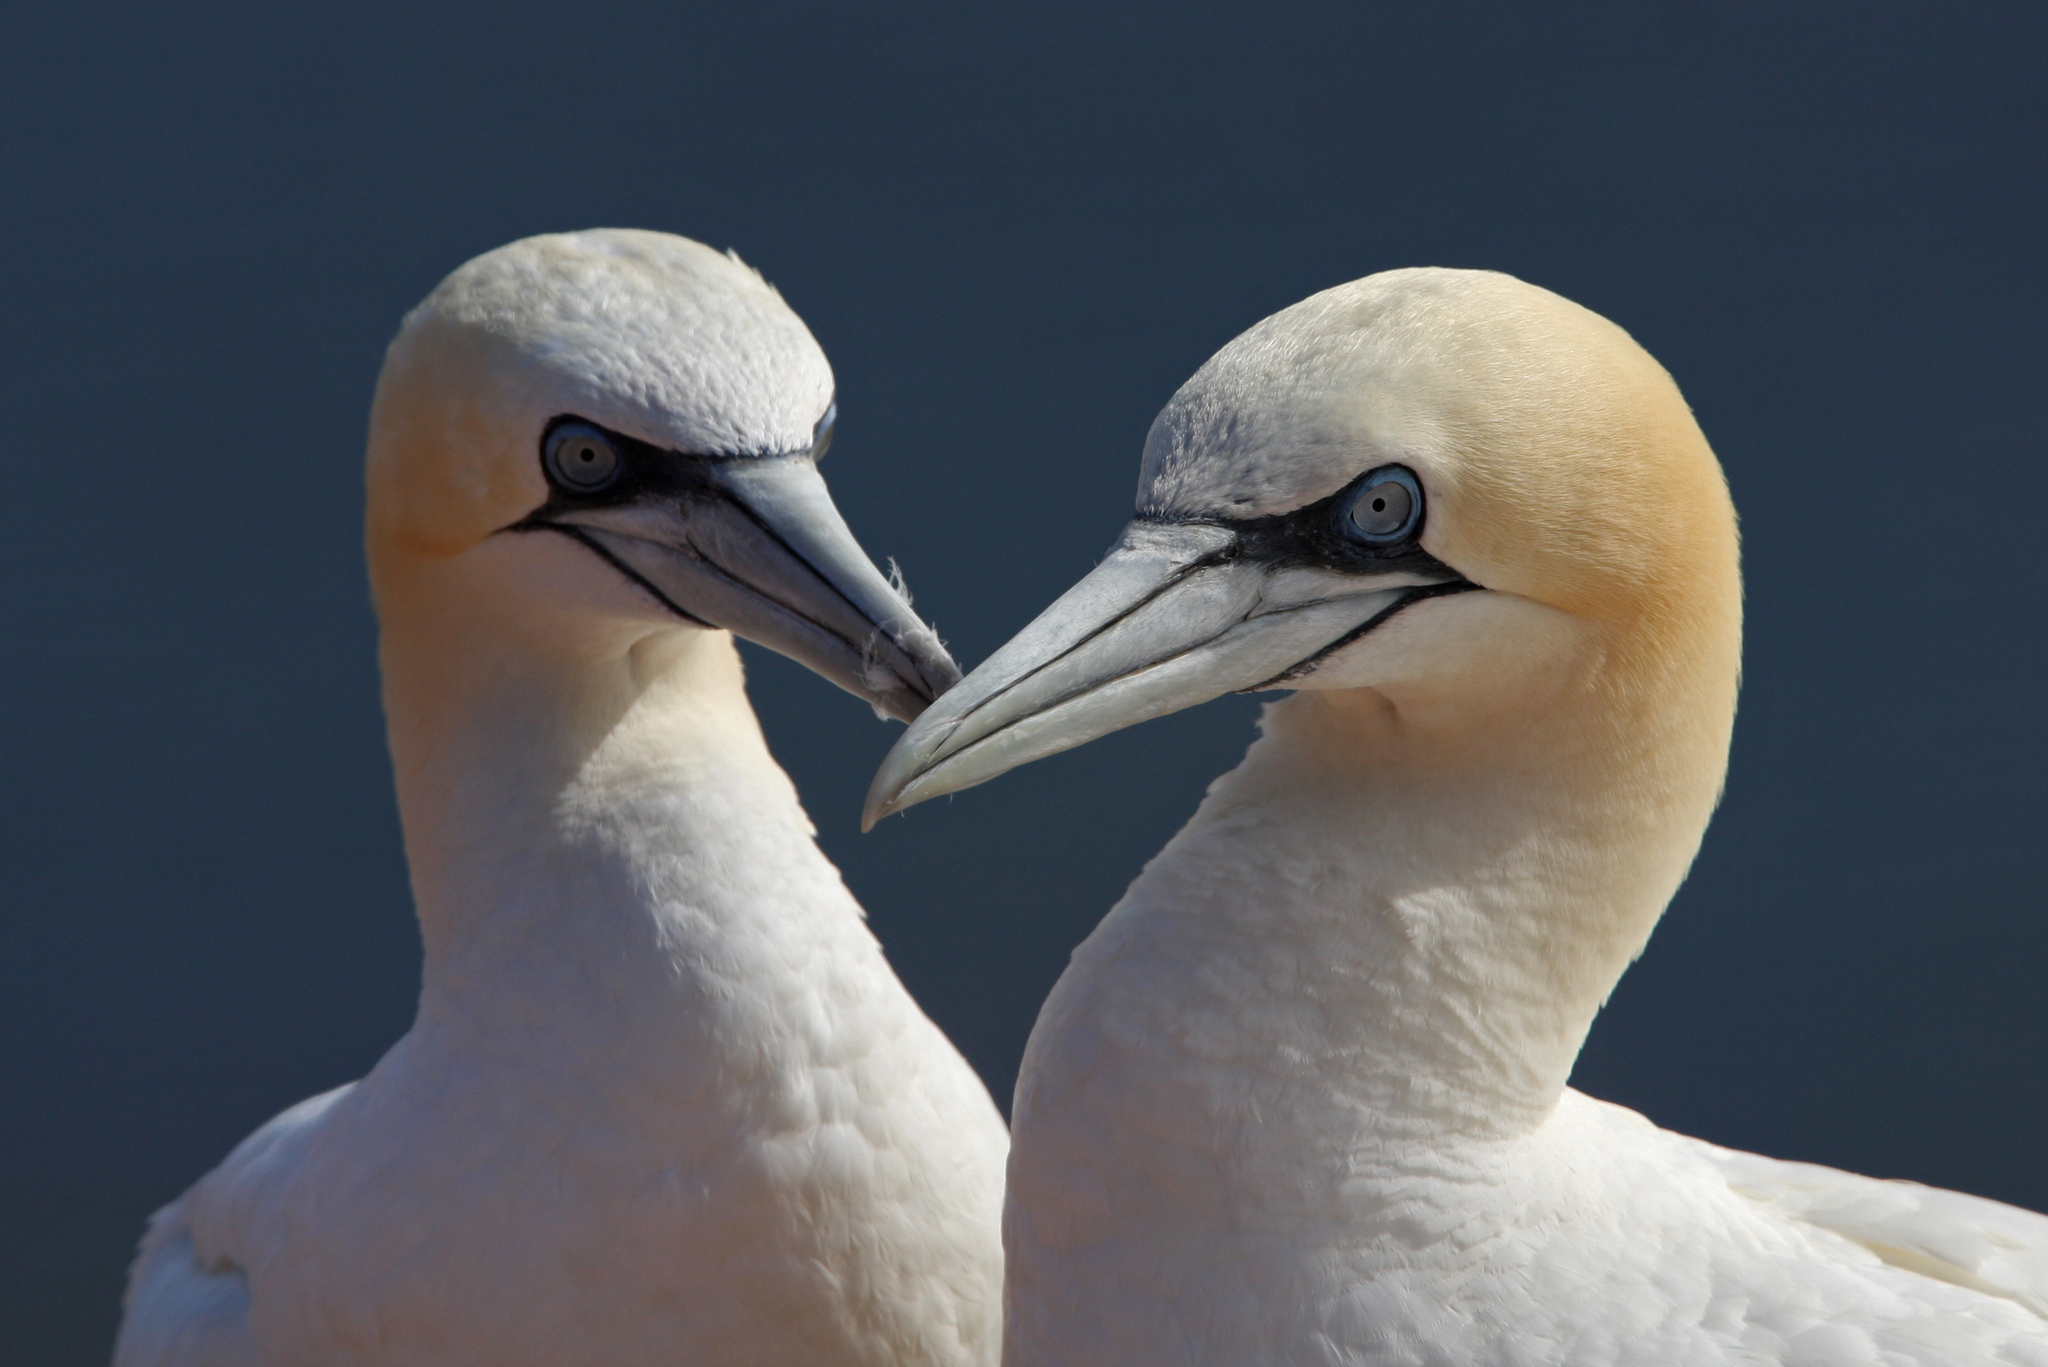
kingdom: Animalia
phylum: Chordata
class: Aves
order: Suliformes
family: Sulidae
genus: Morus
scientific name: Morus bassanus
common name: Northern gannet
